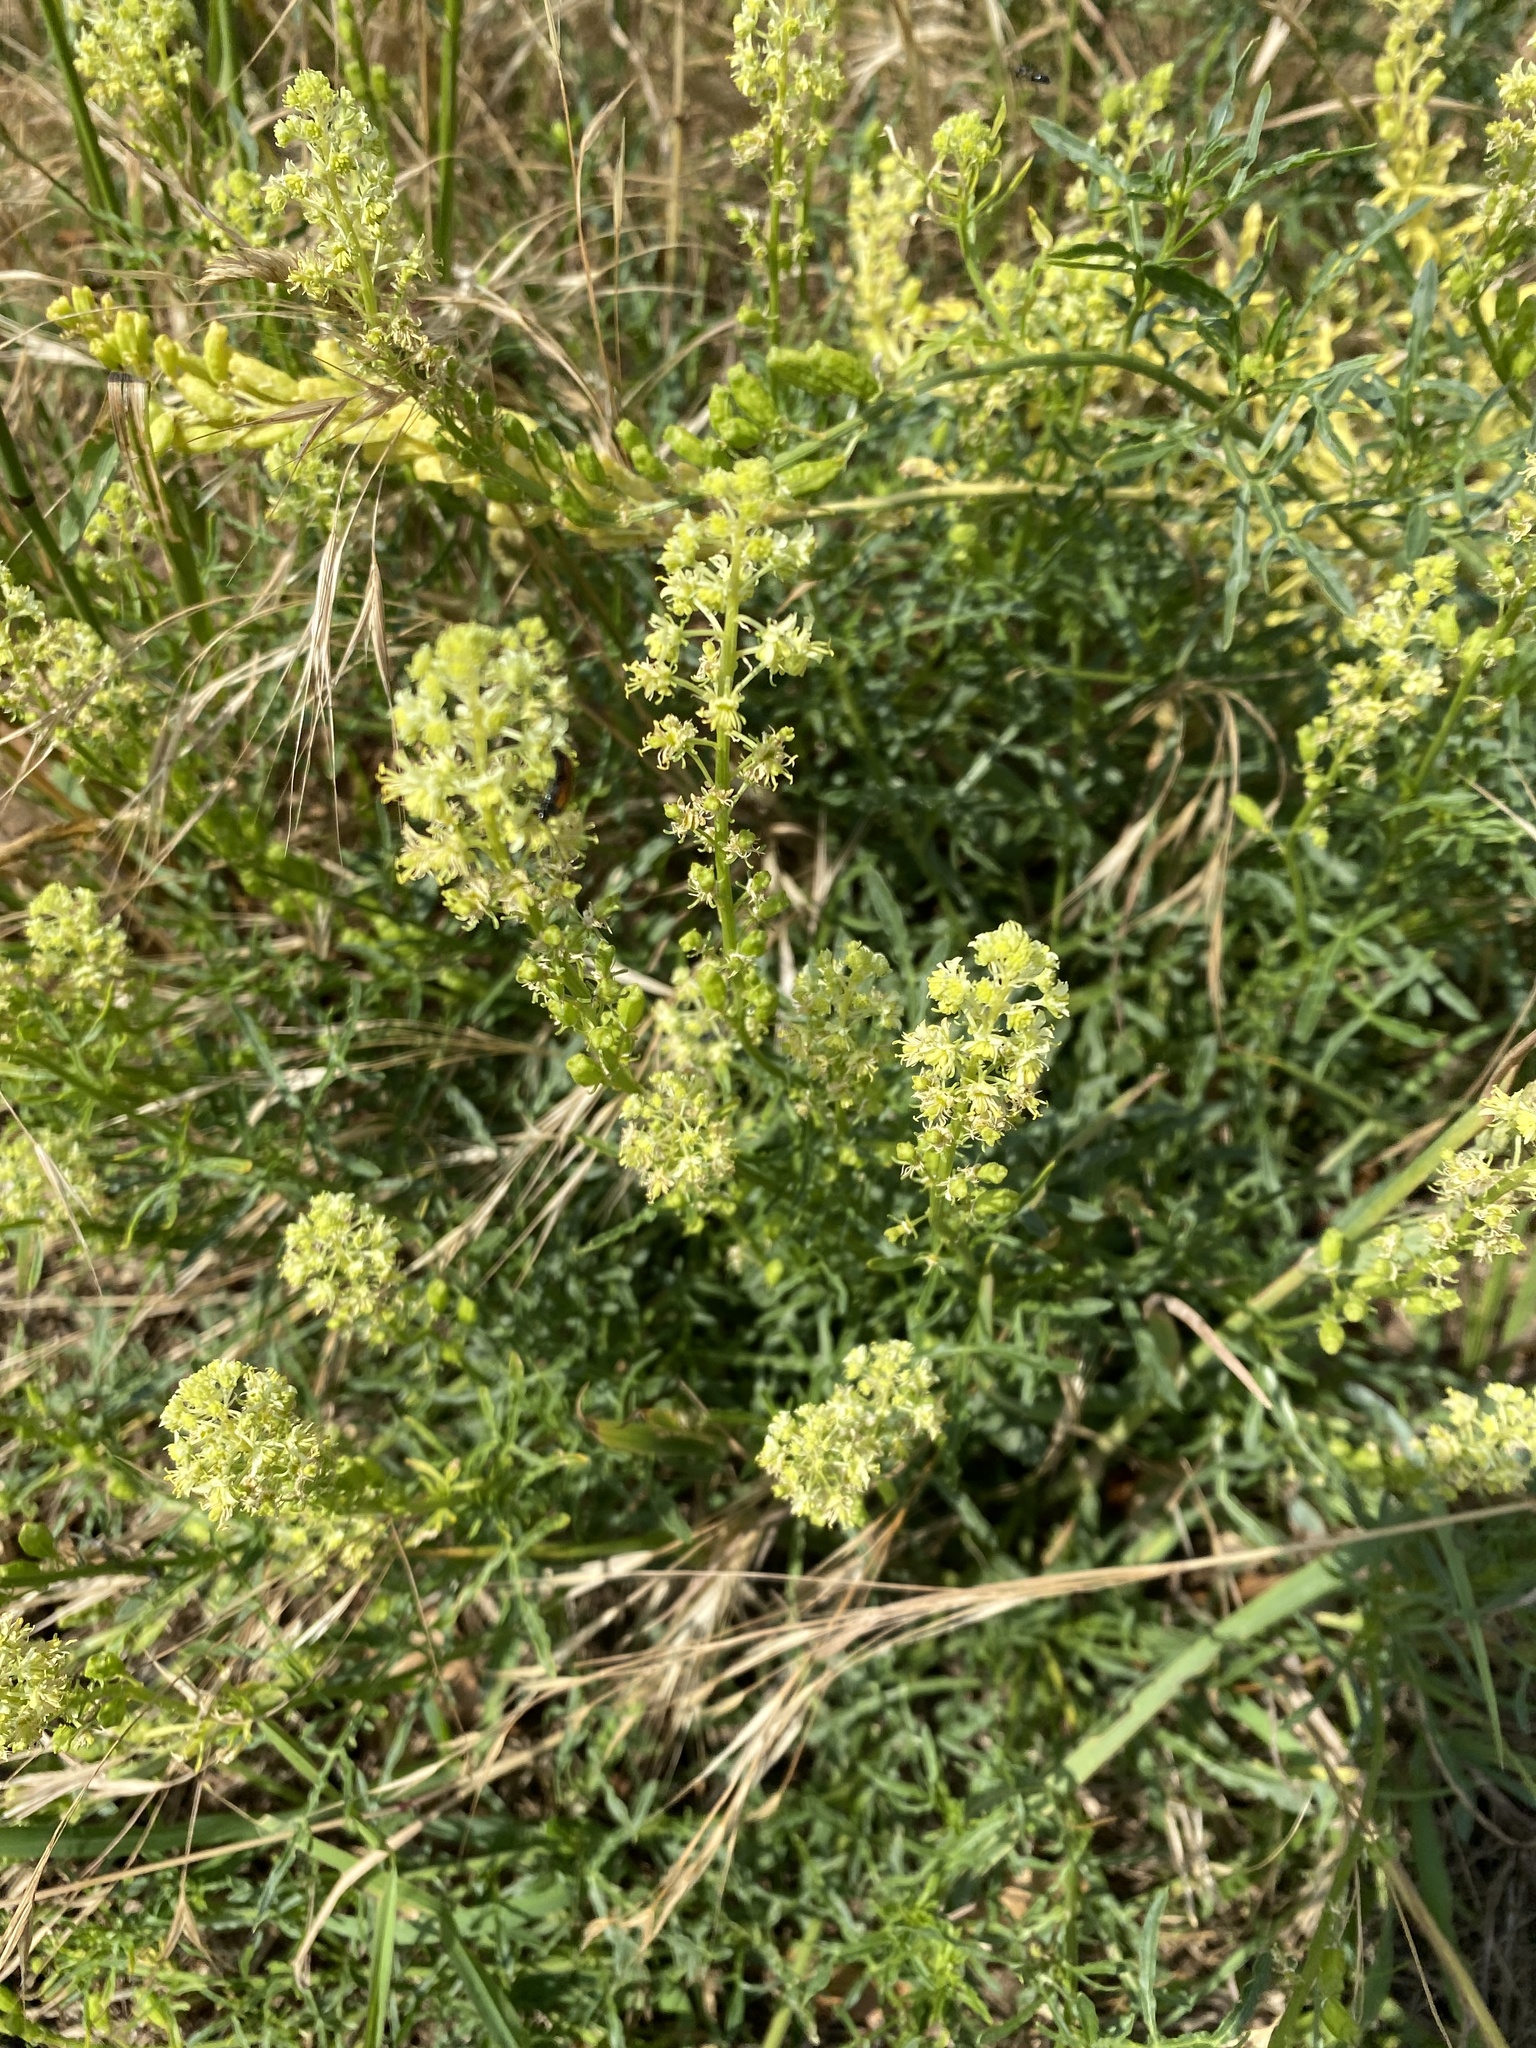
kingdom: Plantae
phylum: Tracheophyta
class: Magnoliopsida
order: Brassicales
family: Resedaceae
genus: Reseda
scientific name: Reseda lutea
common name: Wild mignonette
